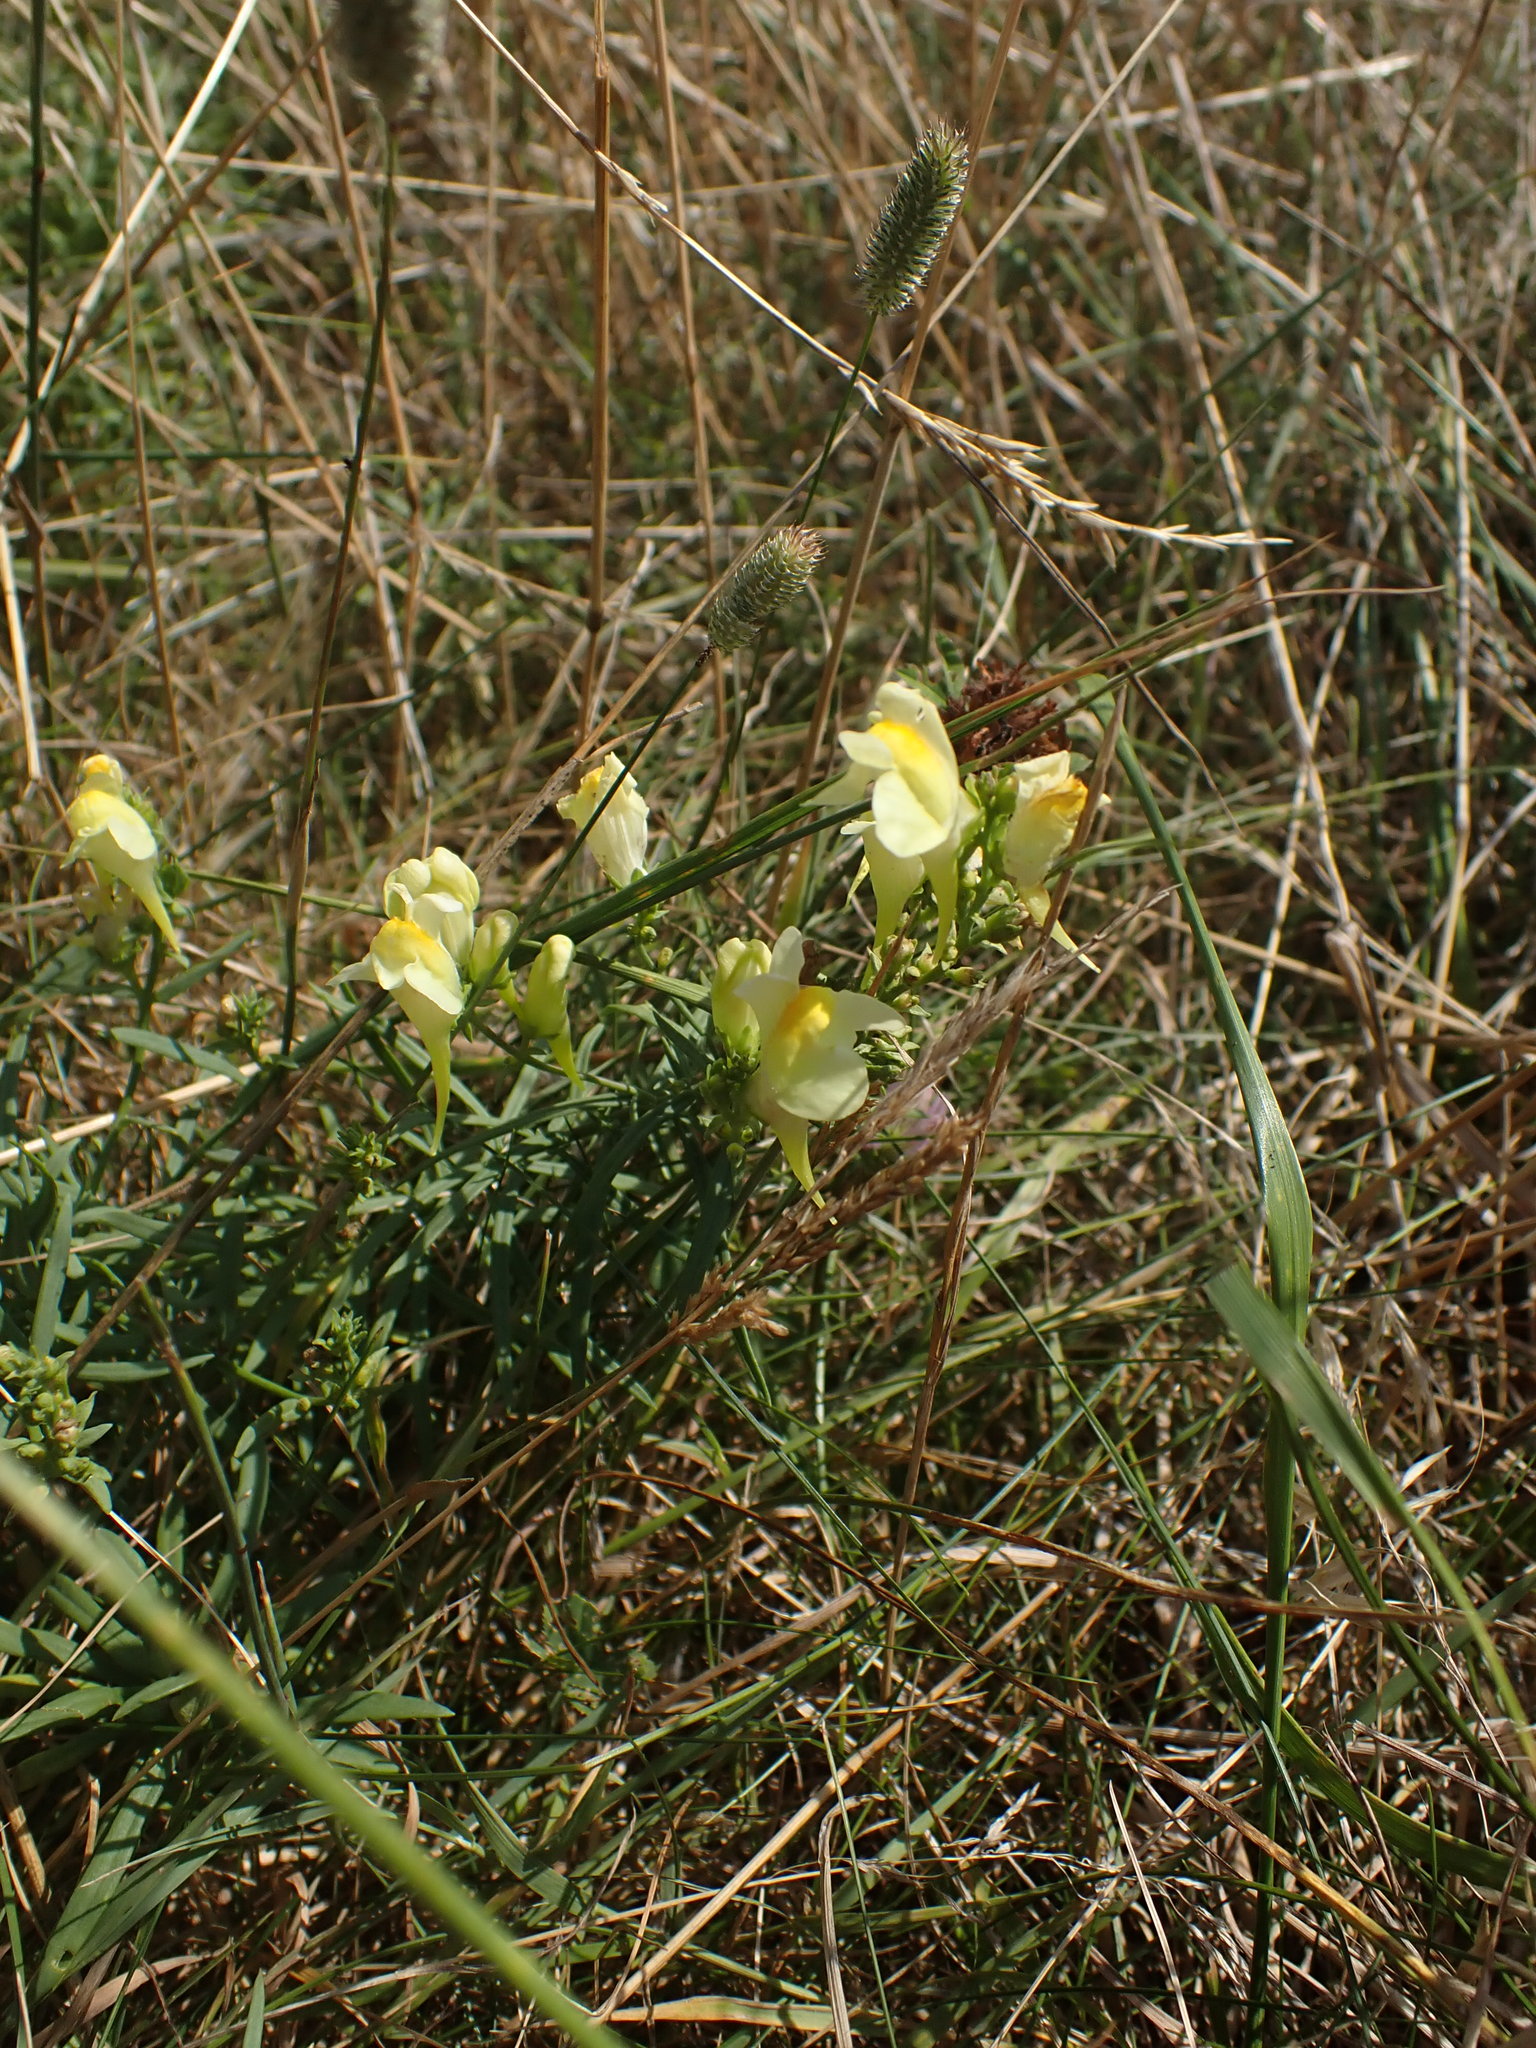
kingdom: Plantae
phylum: Tracheophyta
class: Magnoliopsida
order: Lamiales
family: Plantaginaceae
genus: Linaria
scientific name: Linaria vulgaris
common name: Butter and eggs
